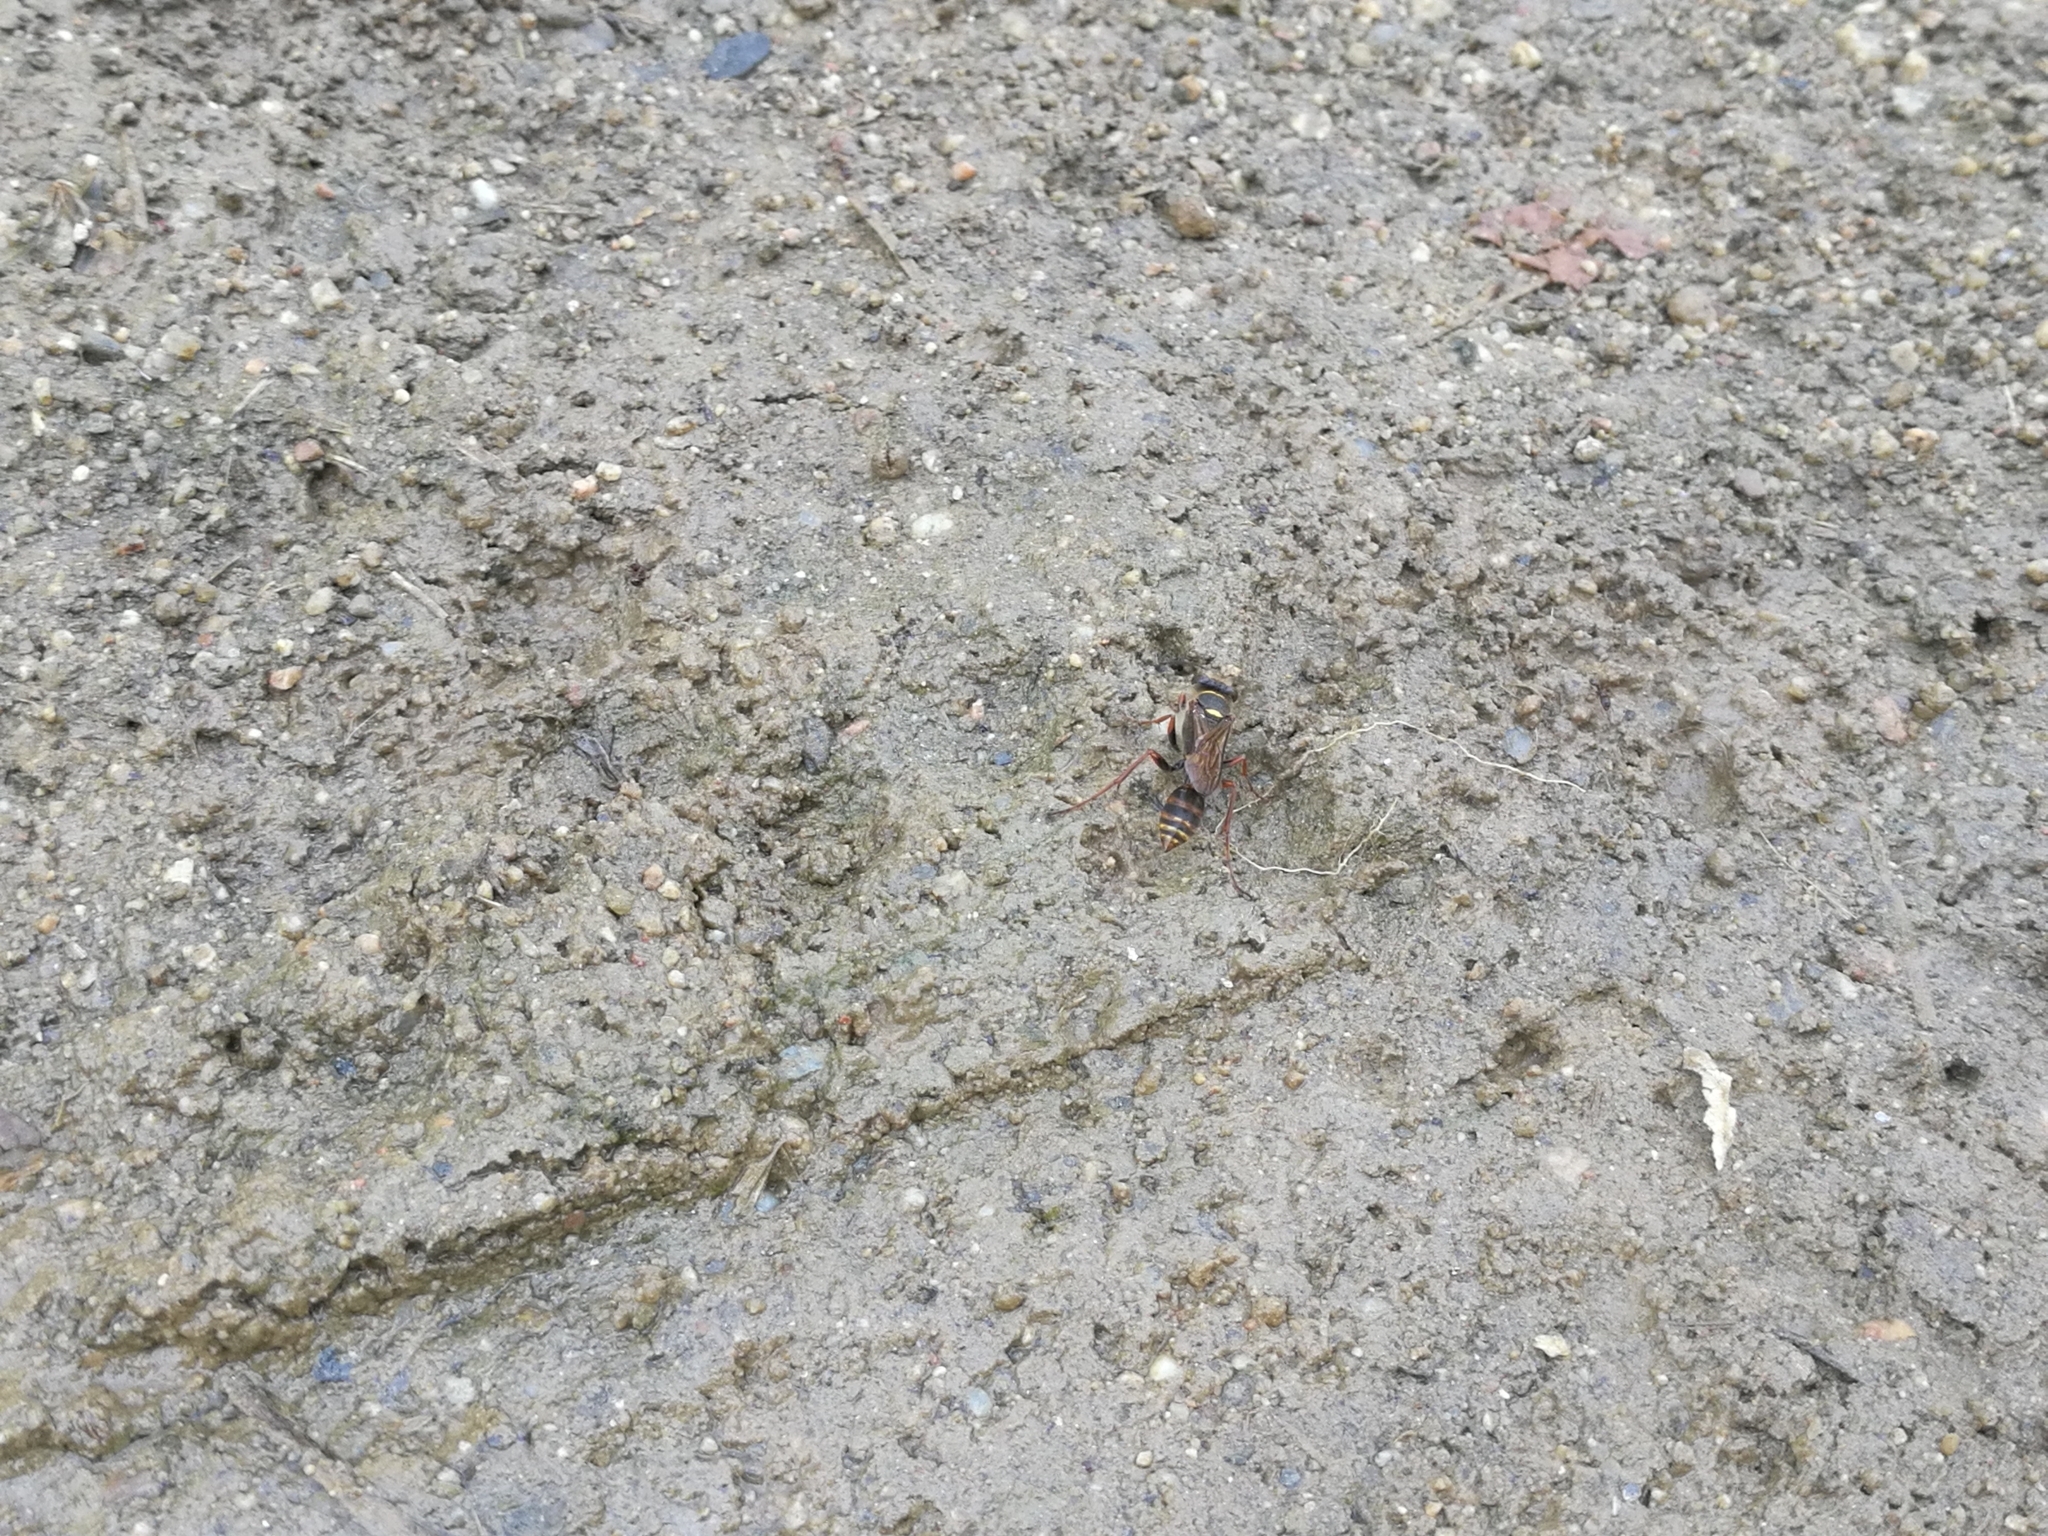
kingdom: Animalia
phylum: Arthropoda
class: Insecta
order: Hymenoptera
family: Sphecidae
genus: Sceliphron
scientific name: Sceliphron curvatum
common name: Pèlopèe
